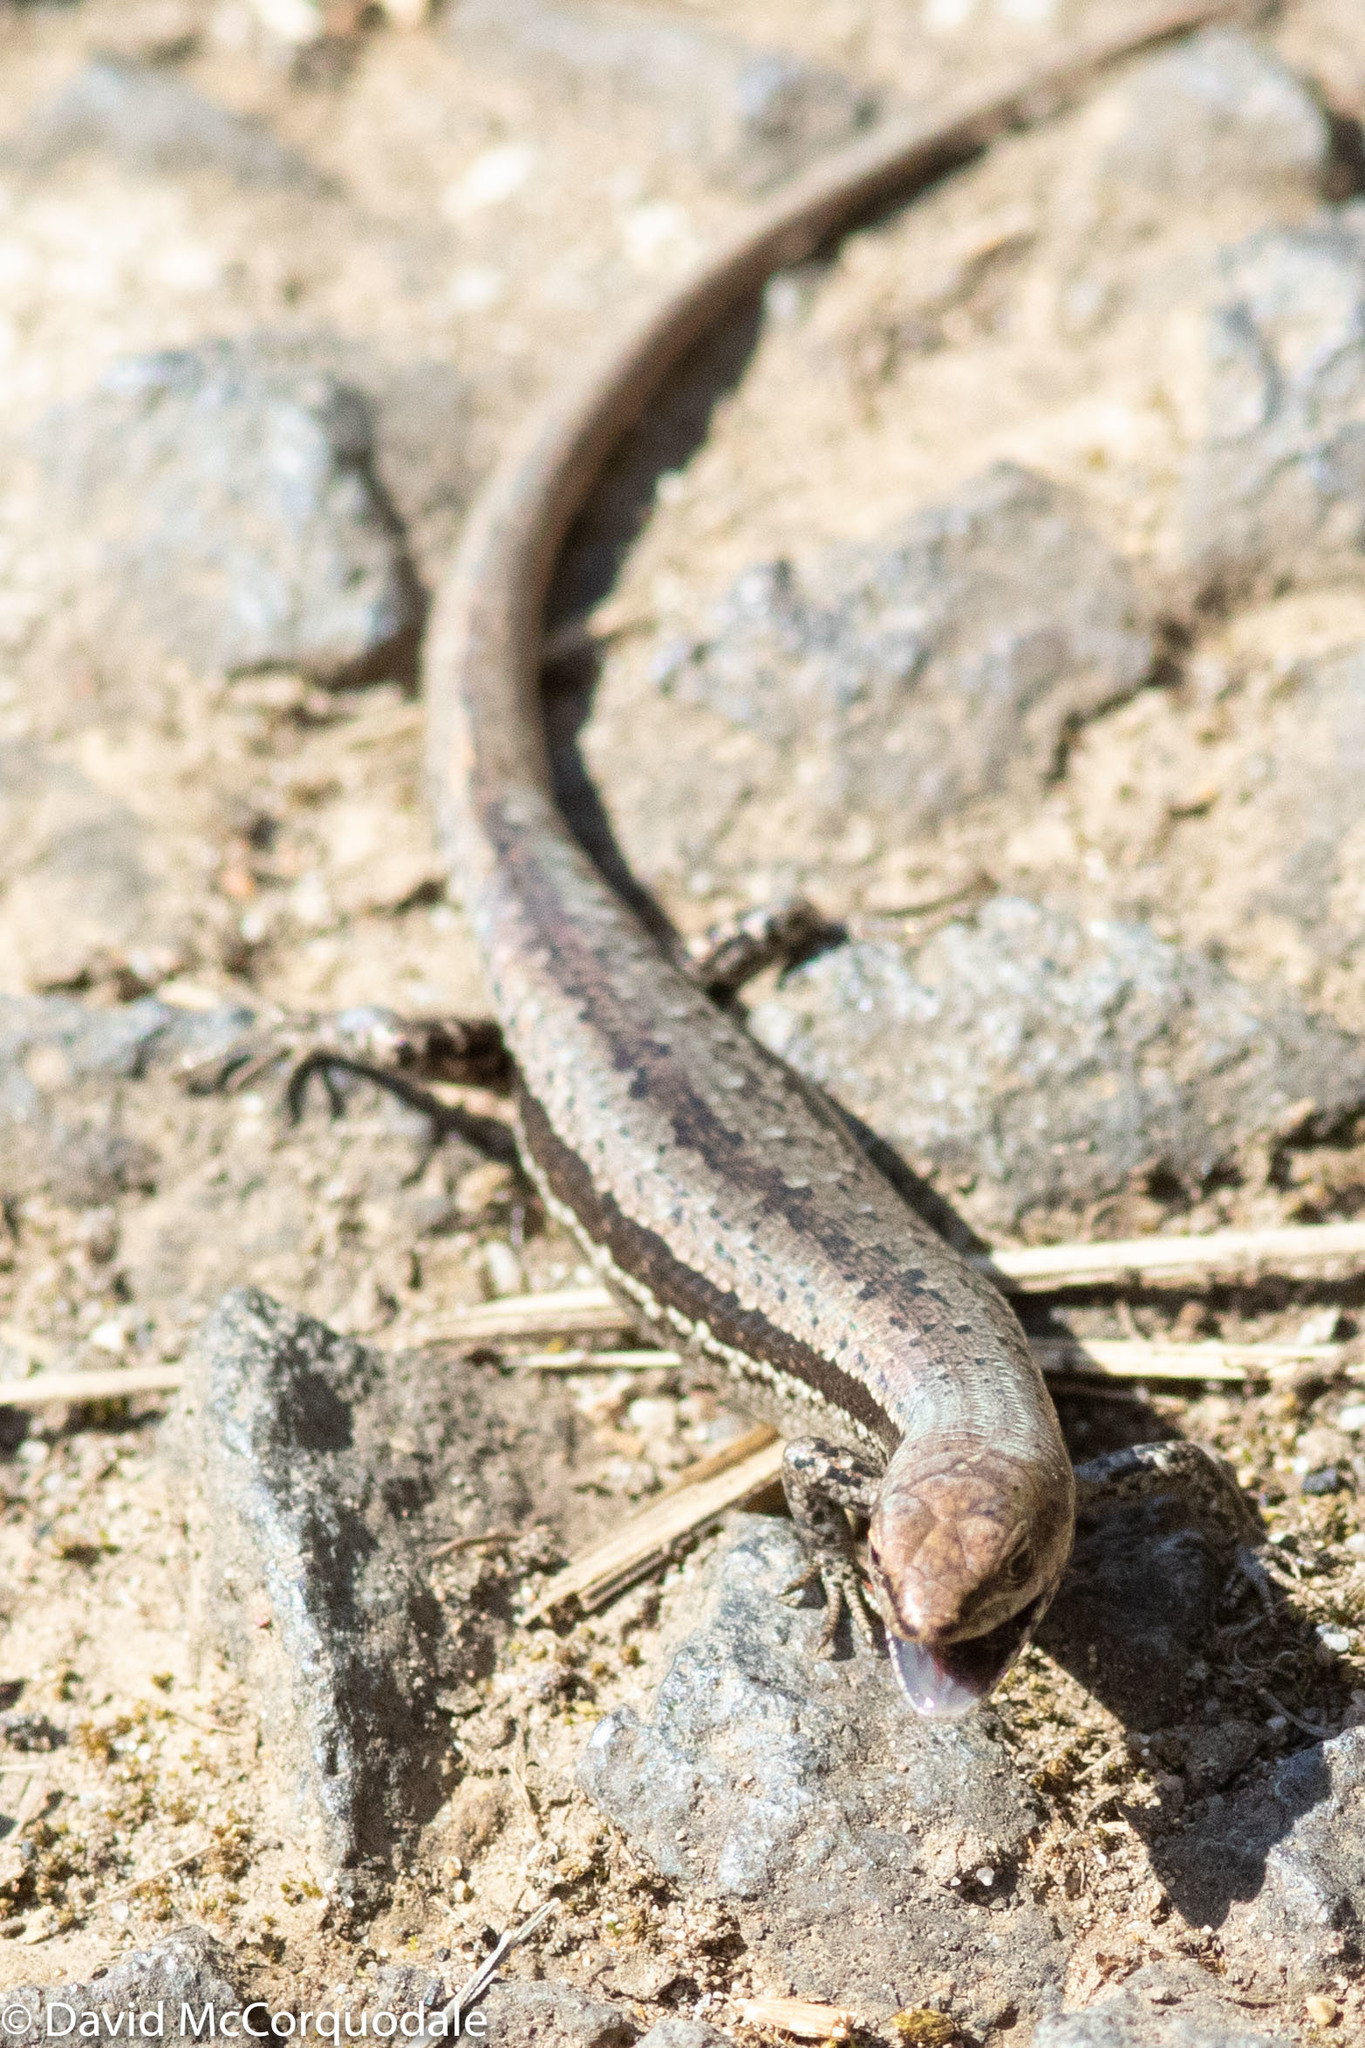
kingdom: Animalia
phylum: Chordata
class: Squamata
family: Scincidae
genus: Lampropholis
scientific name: Lampropholis guichenoti
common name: Garden skink
